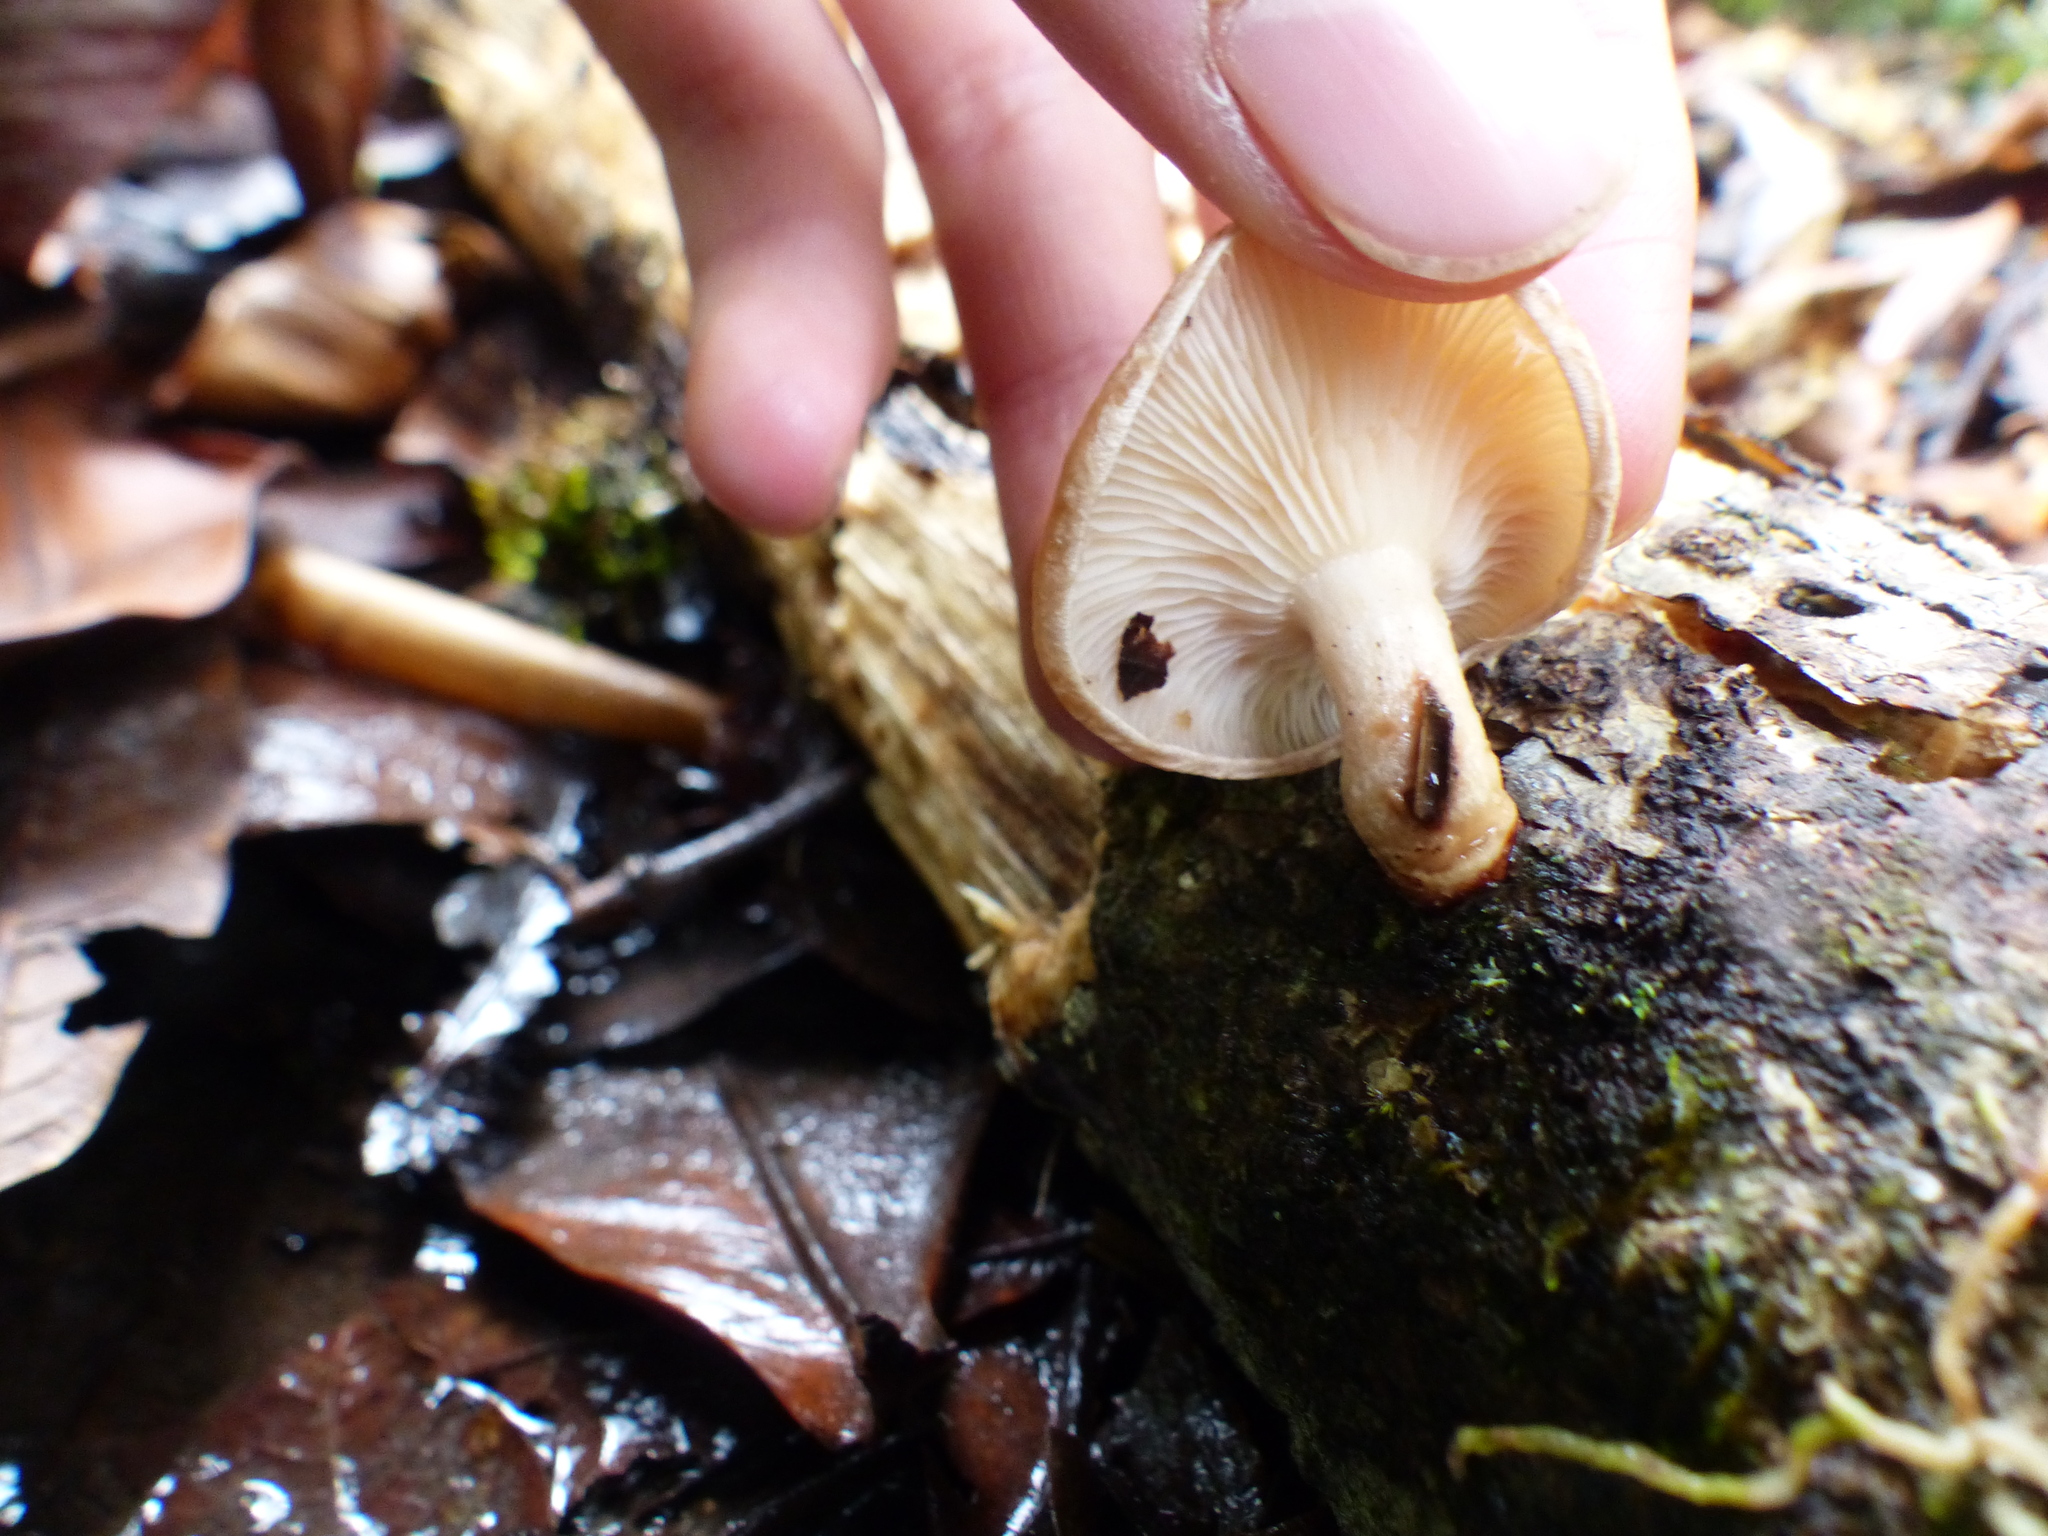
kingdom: Fungi
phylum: Basidiomycota
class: Agaricomycetes
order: Agaricales
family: Omphalotaceae
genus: Lentinula
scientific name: Lentinula boryana
